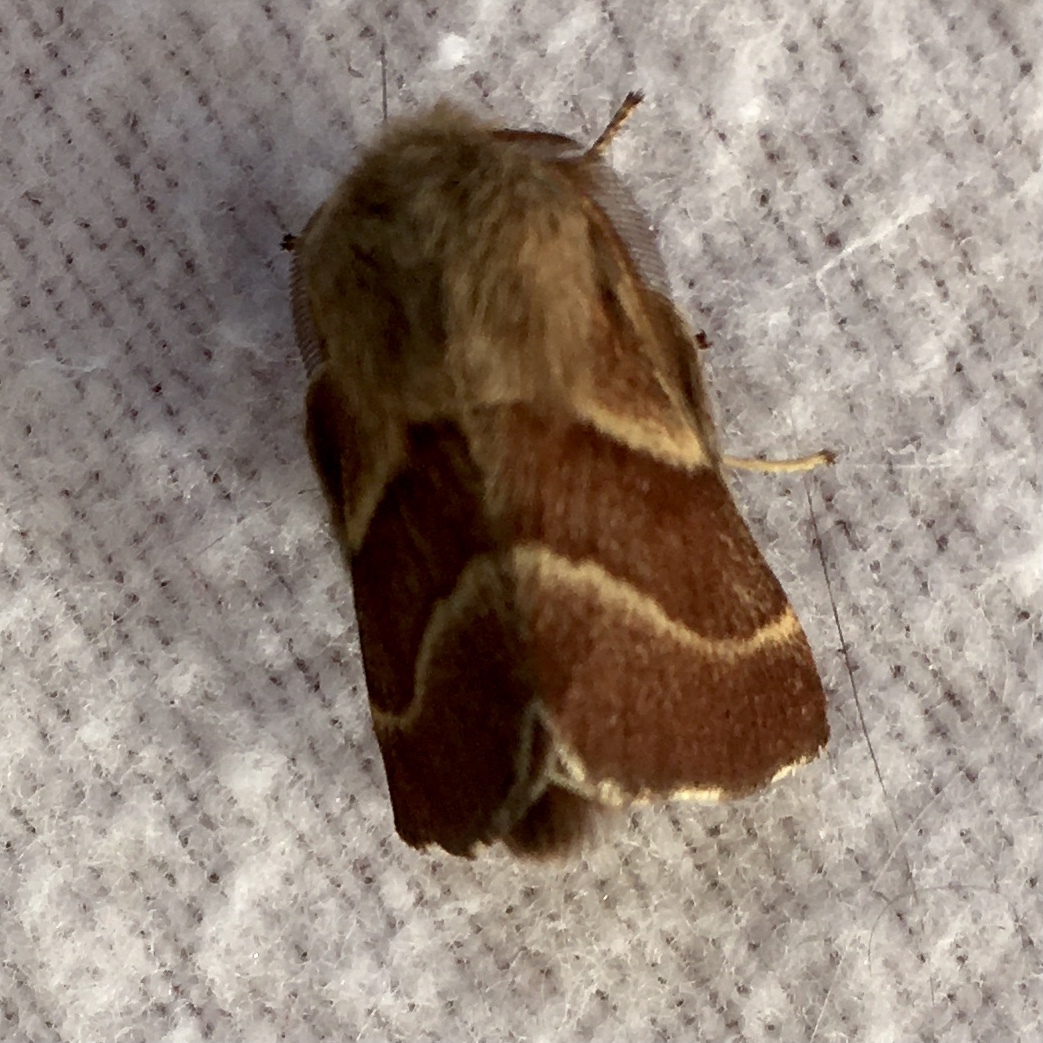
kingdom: Animalia
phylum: Arthropoda
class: Insecta
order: Lepidoptera
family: Lasiocampidae
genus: Malacosoma
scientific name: Malacosoma californica
